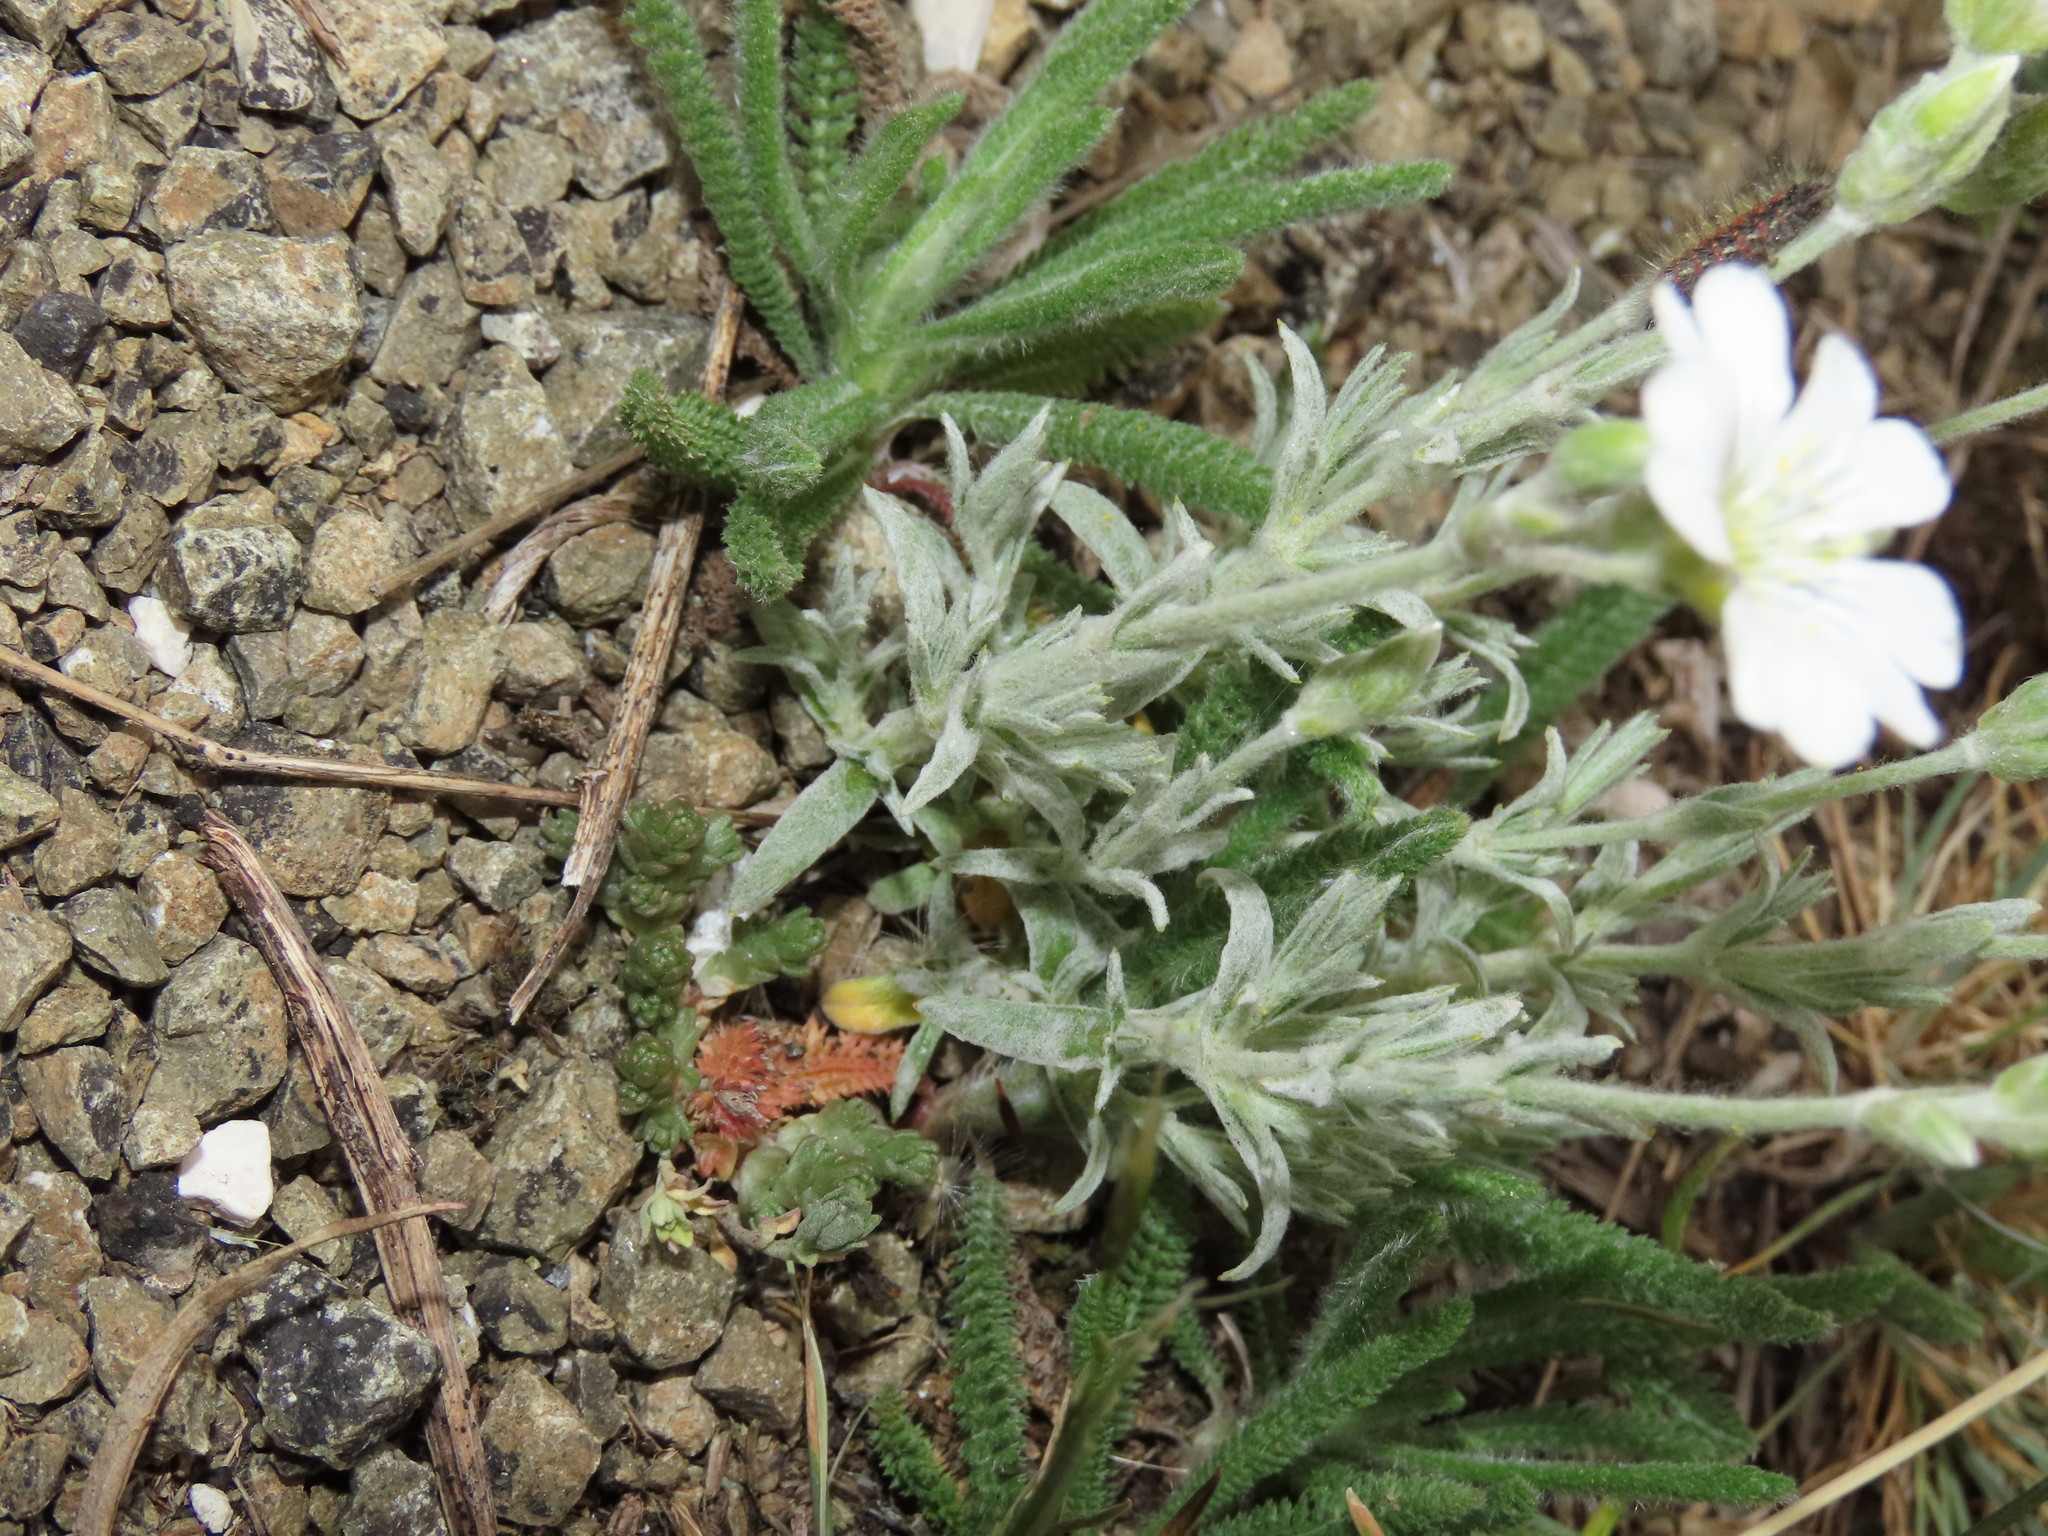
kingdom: Plantae
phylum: Tracheophyta
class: Magnoliopsida
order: Caryophyllales
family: Caryophyllaceae
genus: Cerastium
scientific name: Cerastium tomentosum
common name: Snow-in-summer
